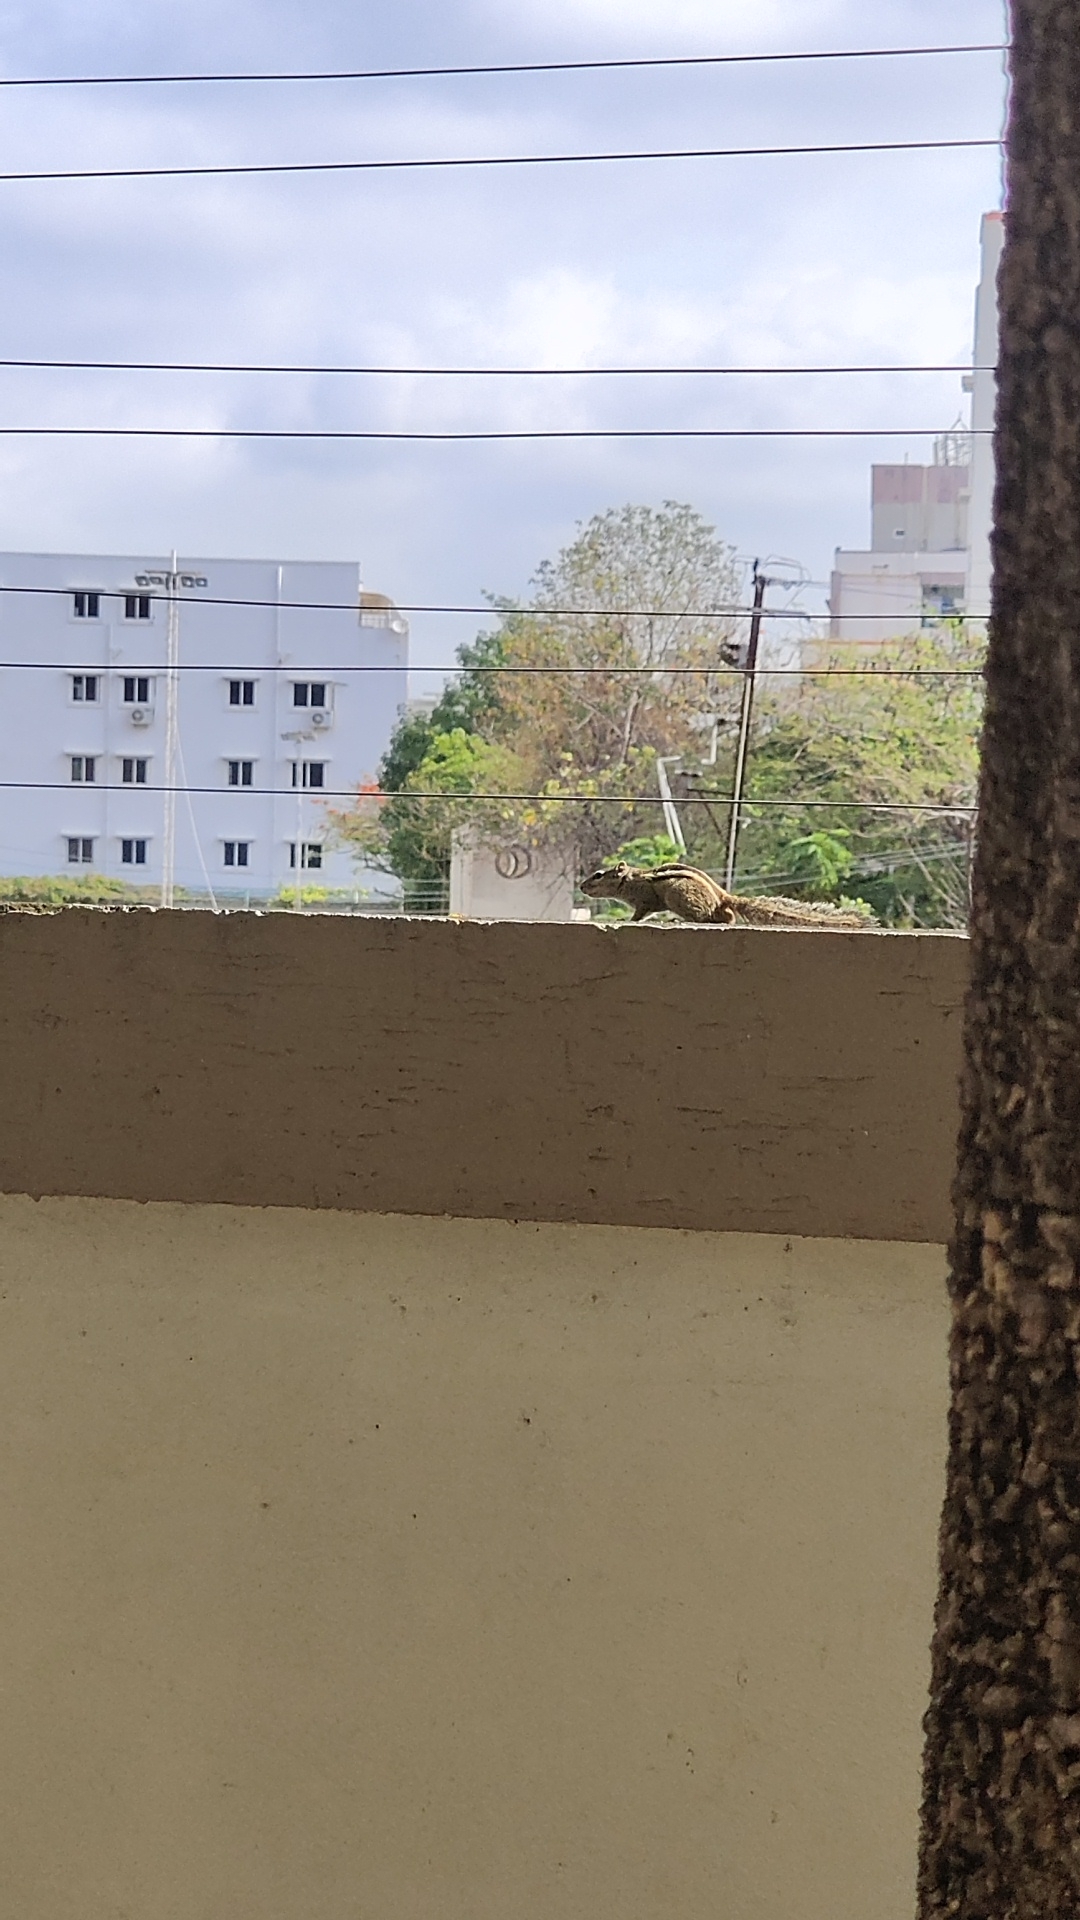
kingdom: Animalia
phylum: Chordata
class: Mammalia
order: Rodentia
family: Sciuridae
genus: Funambulus
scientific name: Funambulus pennantii
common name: Northern palm squirrel
